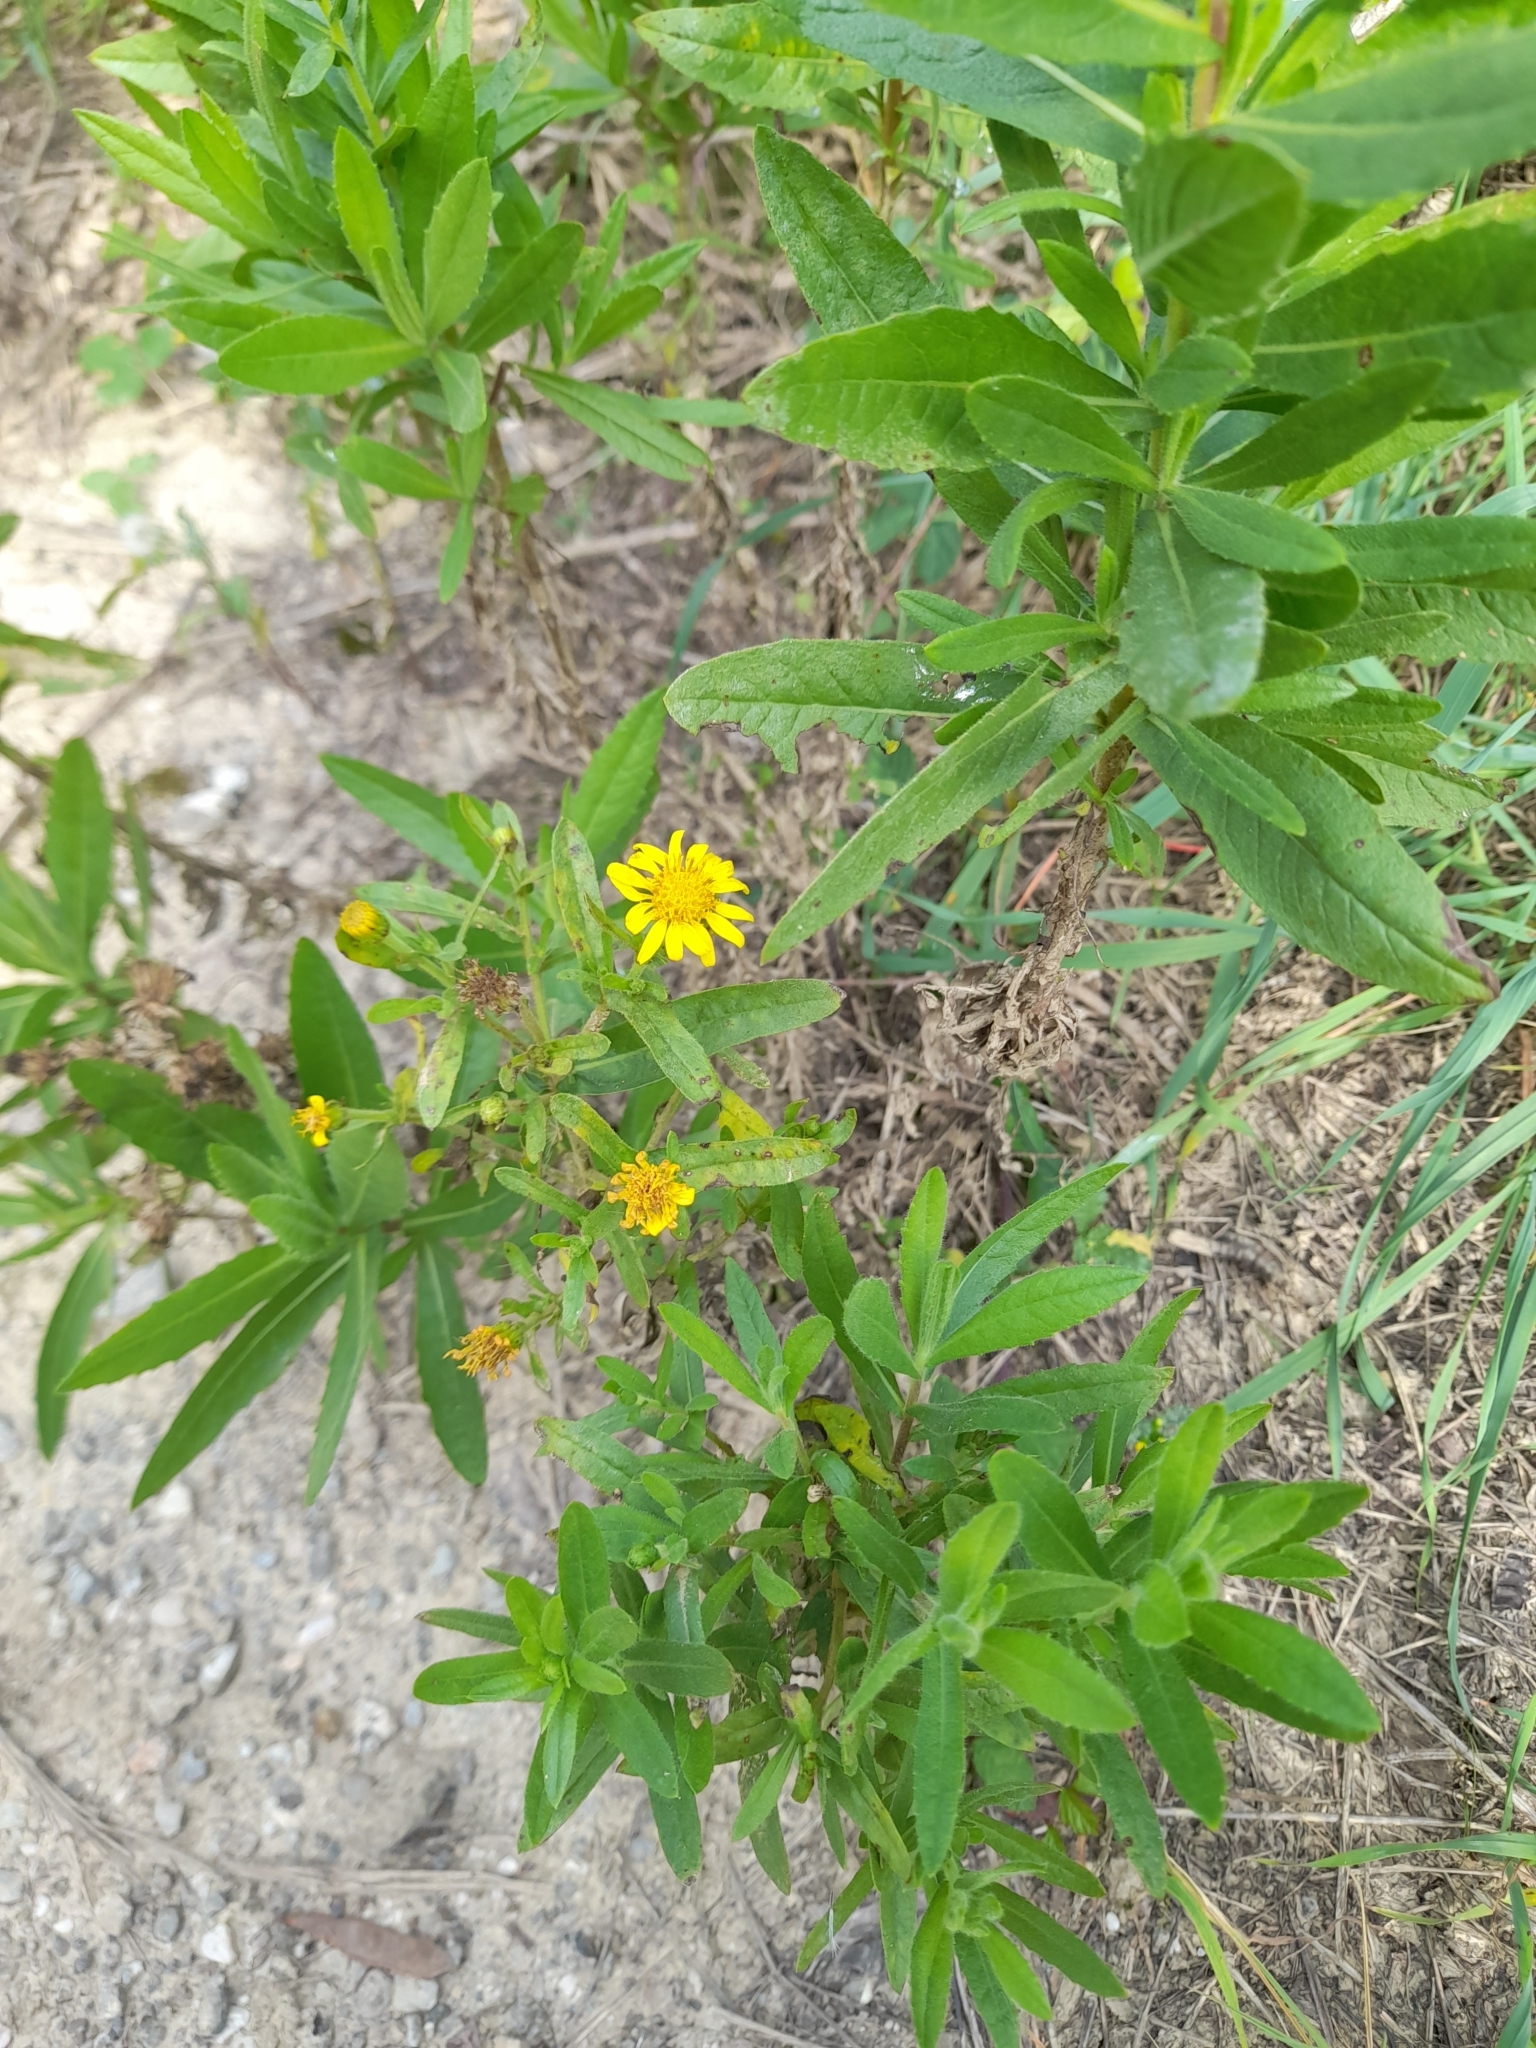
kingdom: Plantae
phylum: Tracheophyta
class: Magnoliopsida
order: Asterales
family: Asteraceae
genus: Dittrichia
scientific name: Dittrichia viscosa
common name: Woody fleabane
